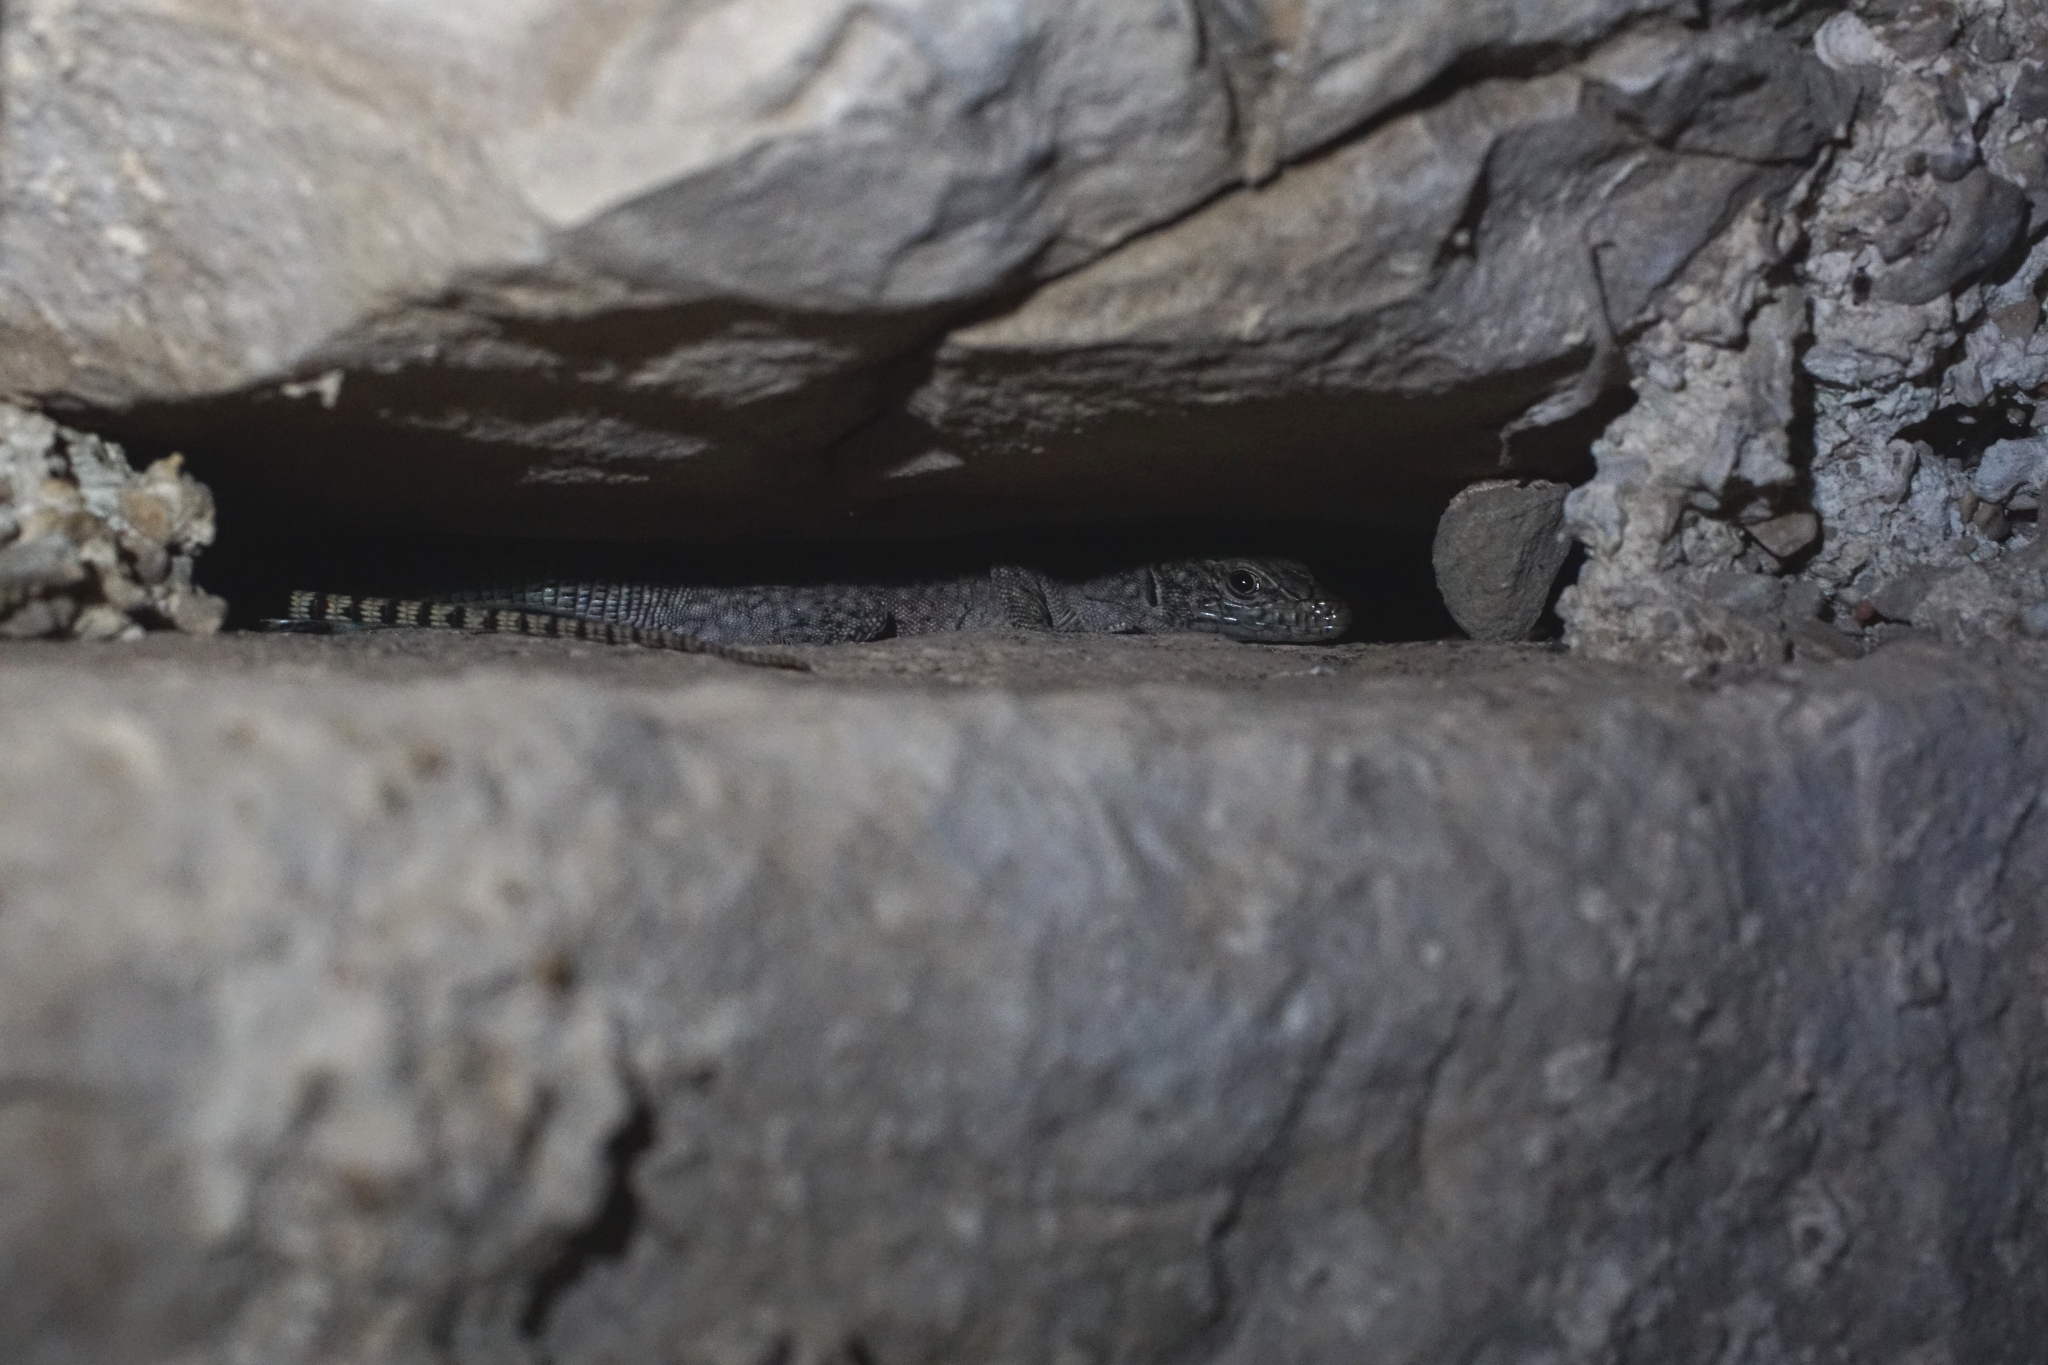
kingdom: Animalia
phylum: Chordata
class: Squamata
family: Lacertidae
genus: Dalmatolacerta
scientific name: Dalmatolacerta oxycephala
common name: Sharp-snouted rock lizard
